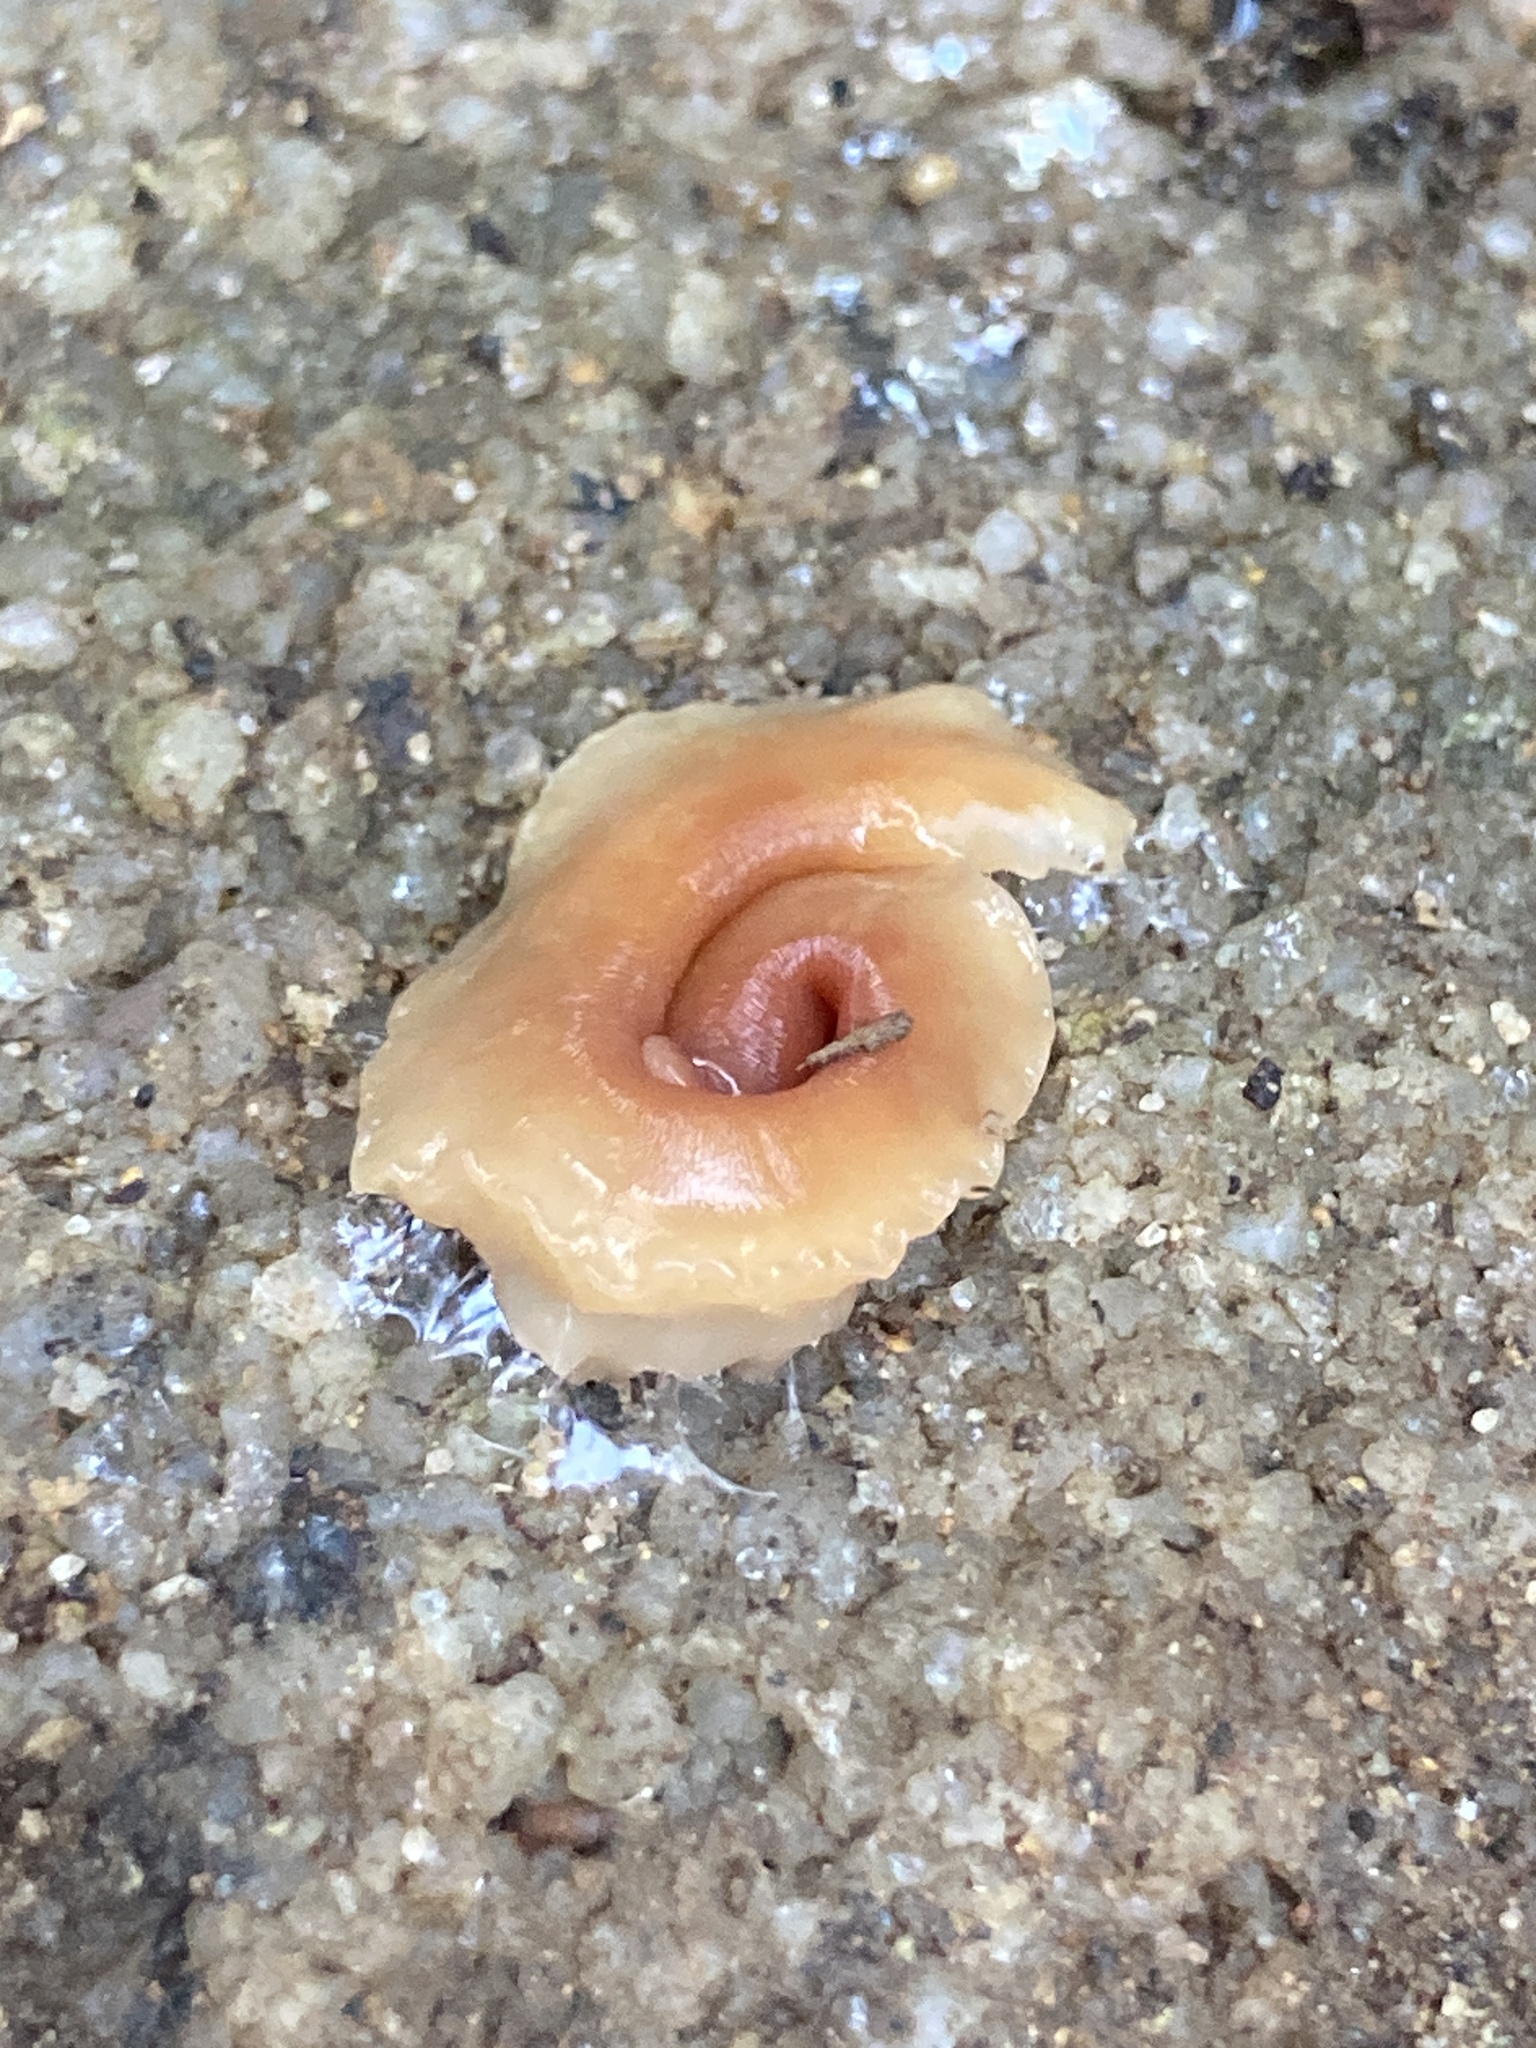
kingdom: Animalia
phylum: Platyhelminthes
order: Tricladida
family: Geoplanidae
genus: Australoplana
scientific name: Australoplana alba
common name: Australian flatworm
